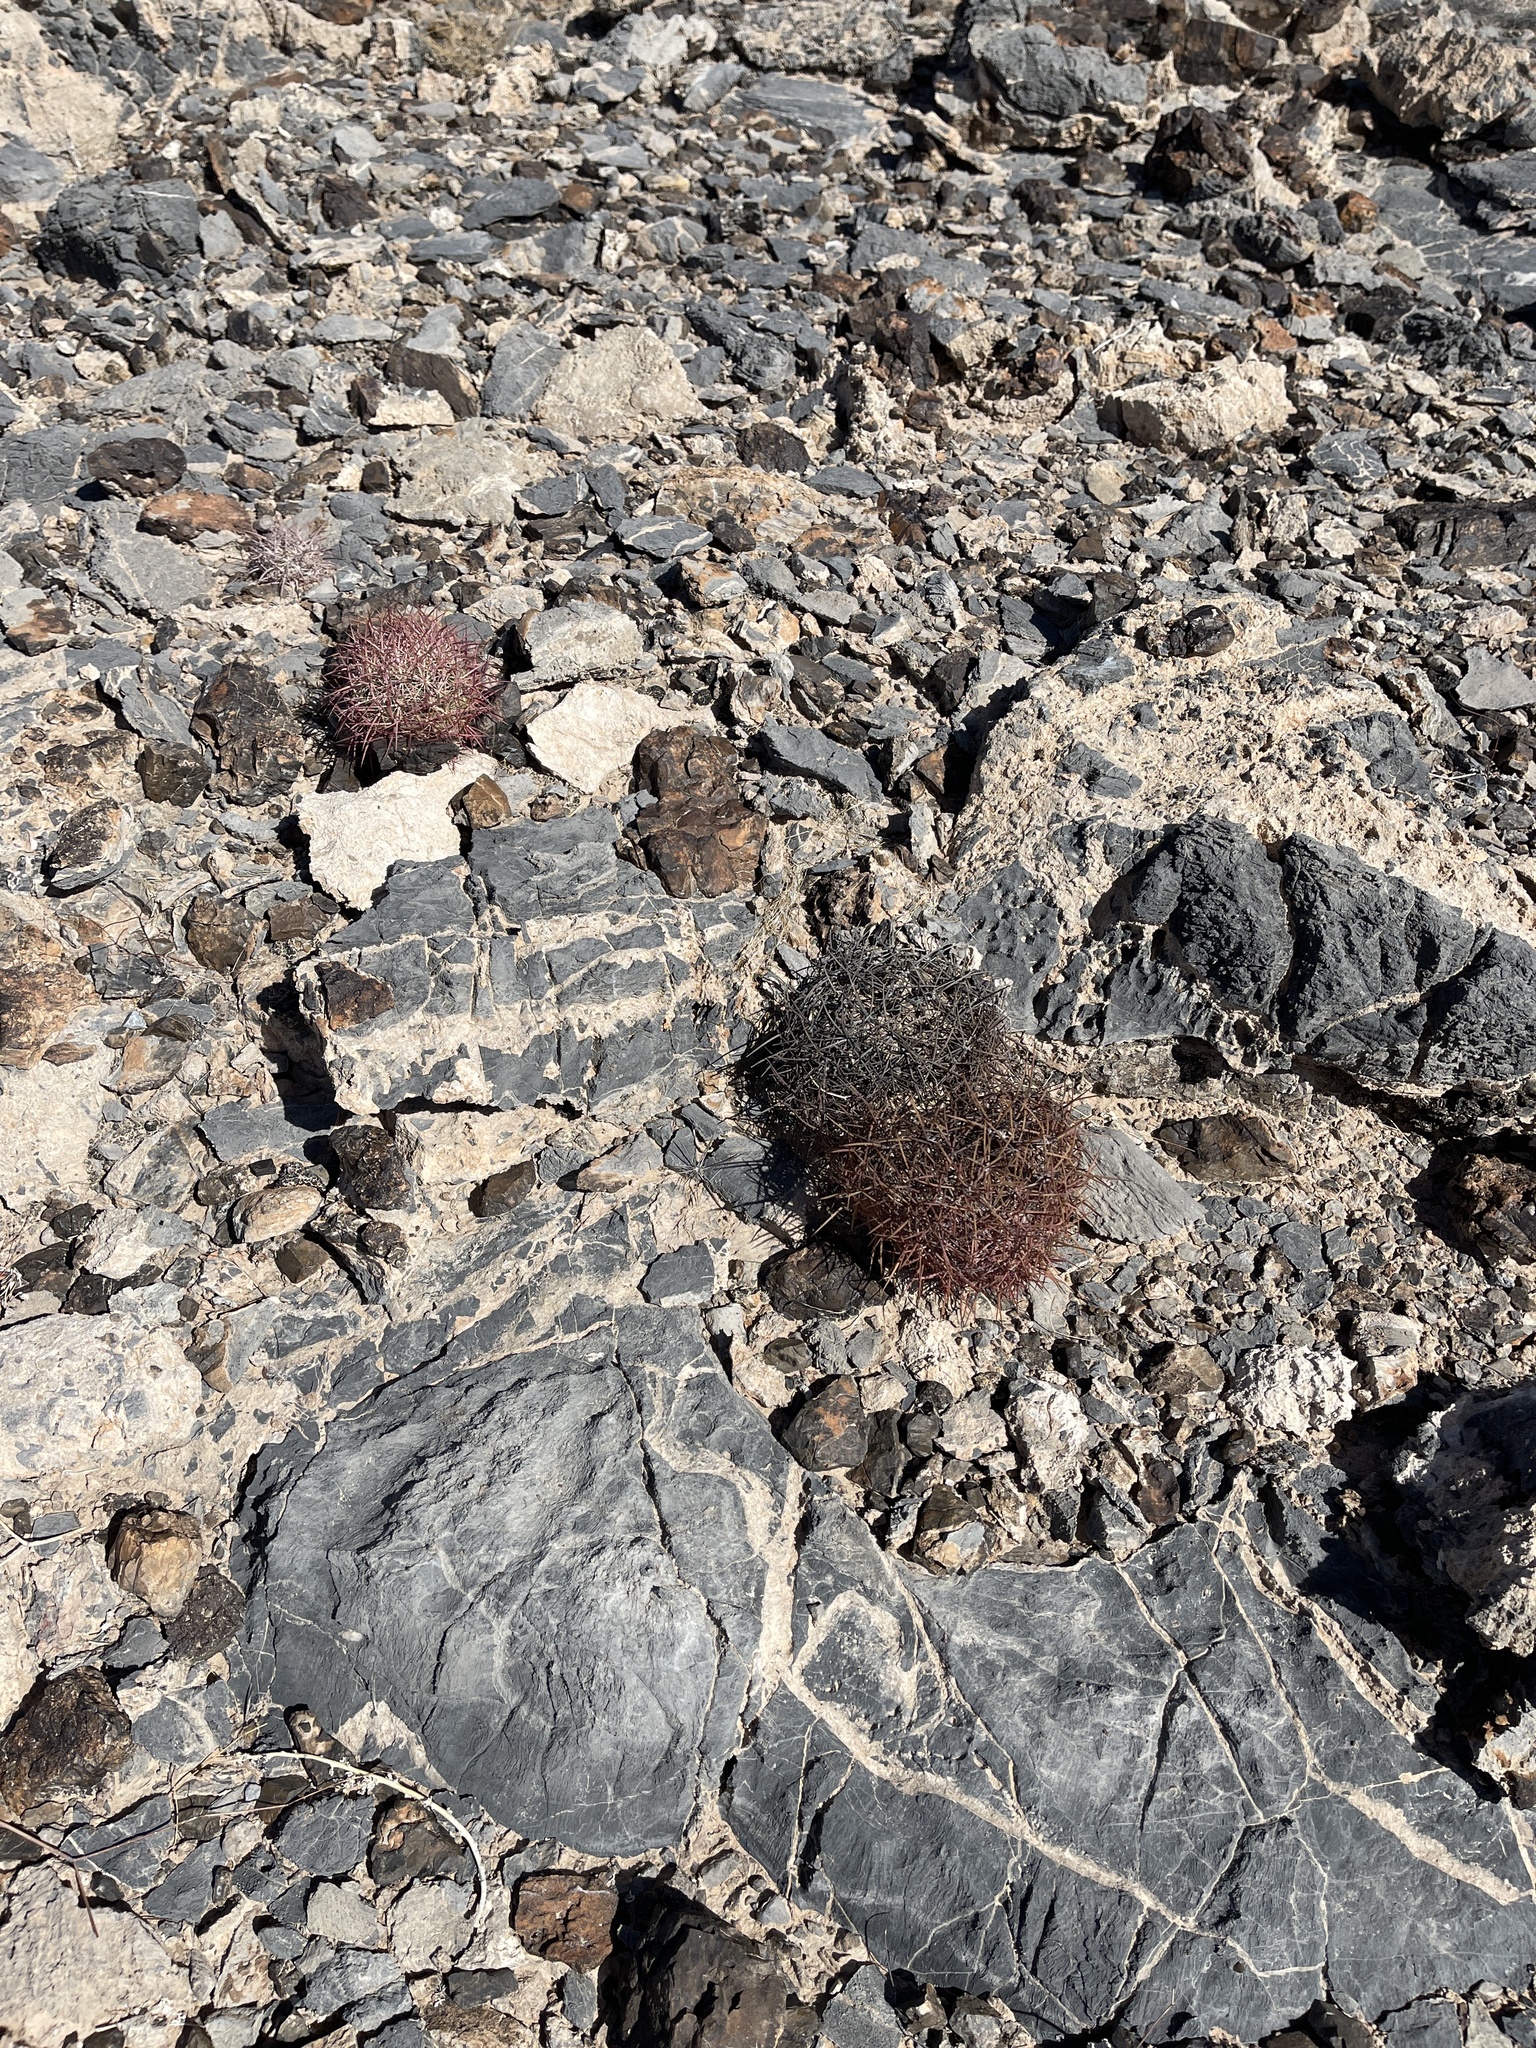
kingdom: Plantae
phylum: Tracheophyta
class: Magnoliopsida
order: Caryophyllales
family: Cactaceae
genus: Ferocactus
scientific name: Ferocactus cylindraceus
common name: California barrel cactus
